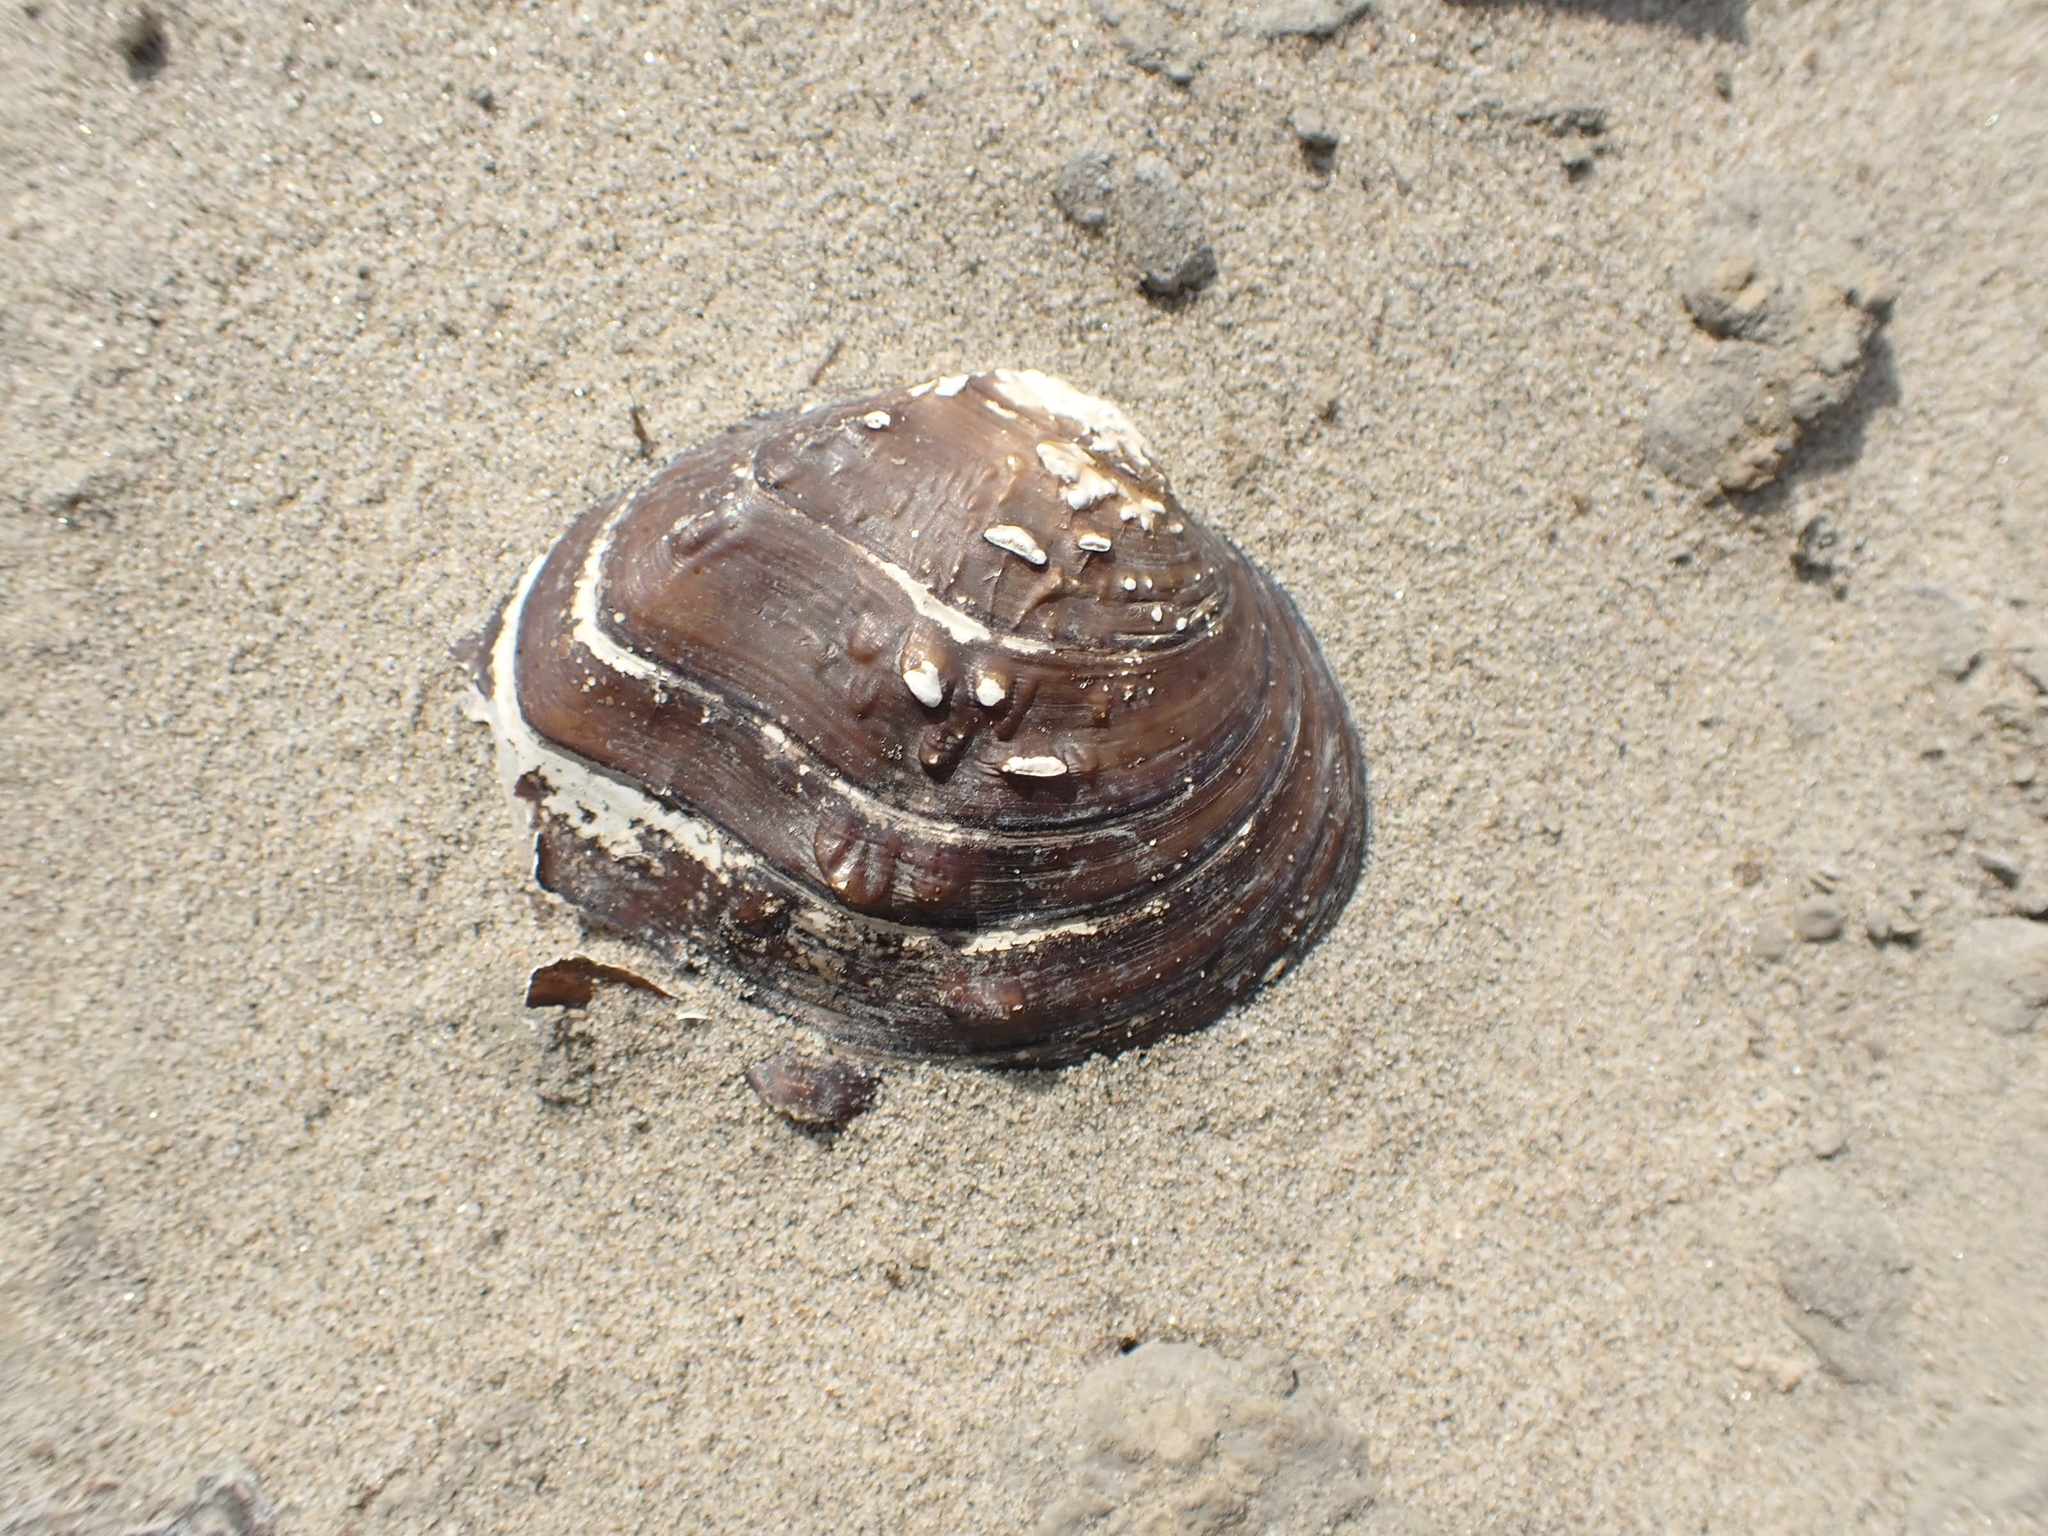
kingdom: Animalia
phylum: Mollusca
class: Bivalvia
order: Unionida
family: Unionidae
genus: Quadrula
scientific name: Quadrula quadrula
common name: Mapleleaf
